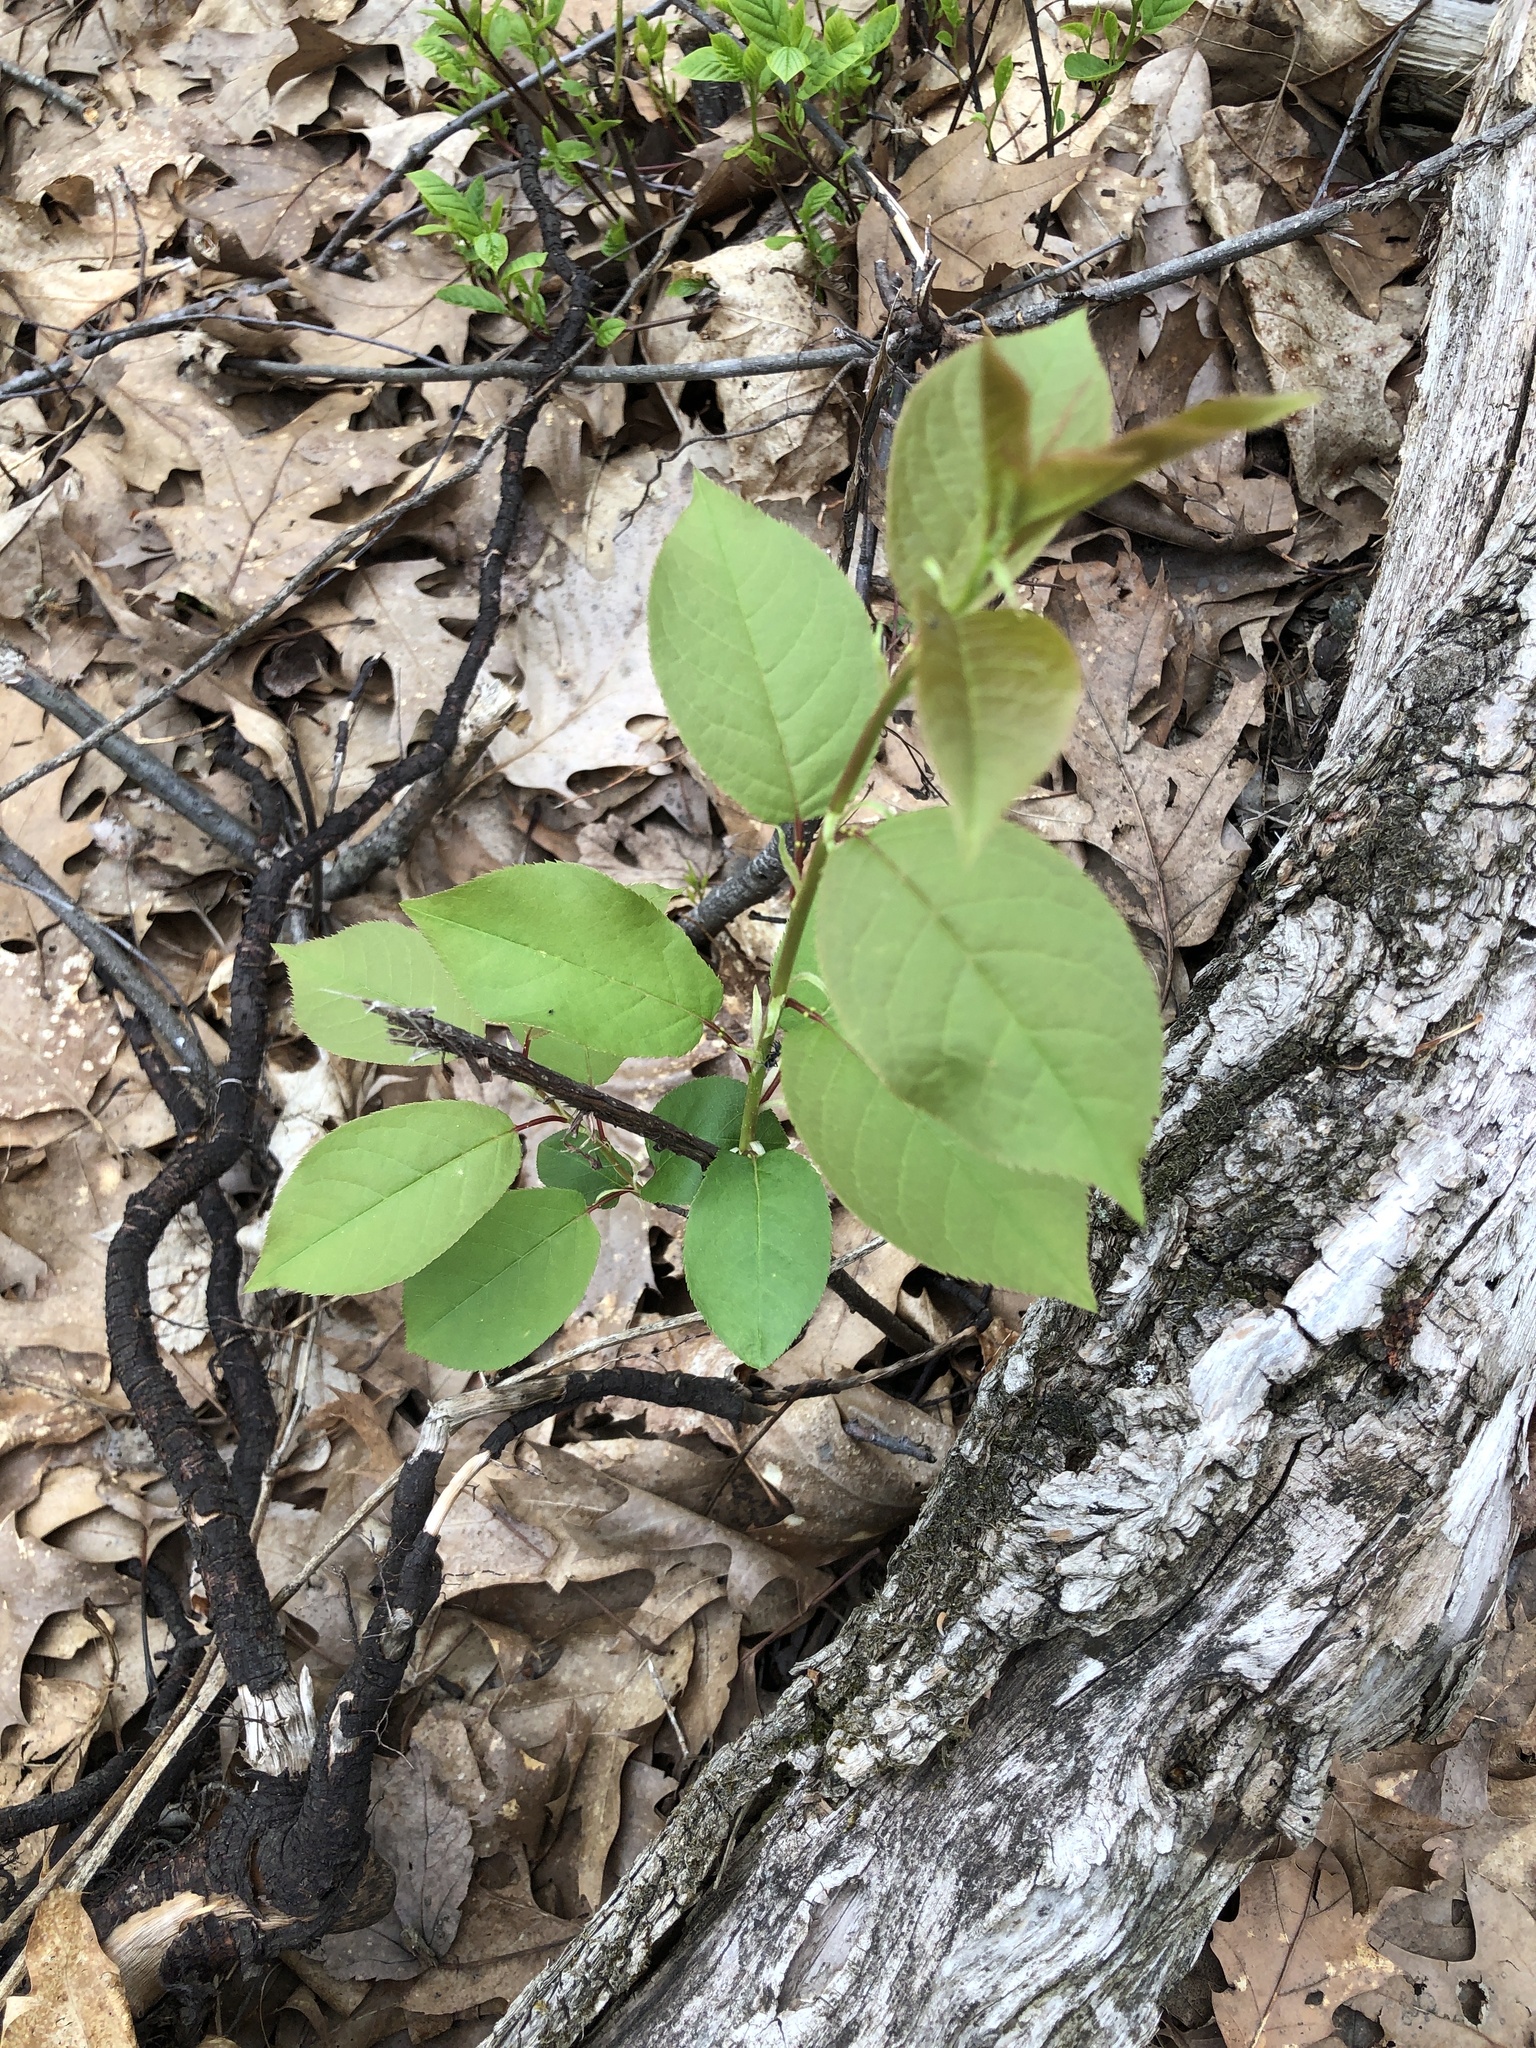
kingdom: Plantae
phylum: Tracheophyta
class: Magnoliopsida
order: Rosales
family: Rosaceae
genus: Prunus
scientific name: Prunus serotina
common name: Black cherry
